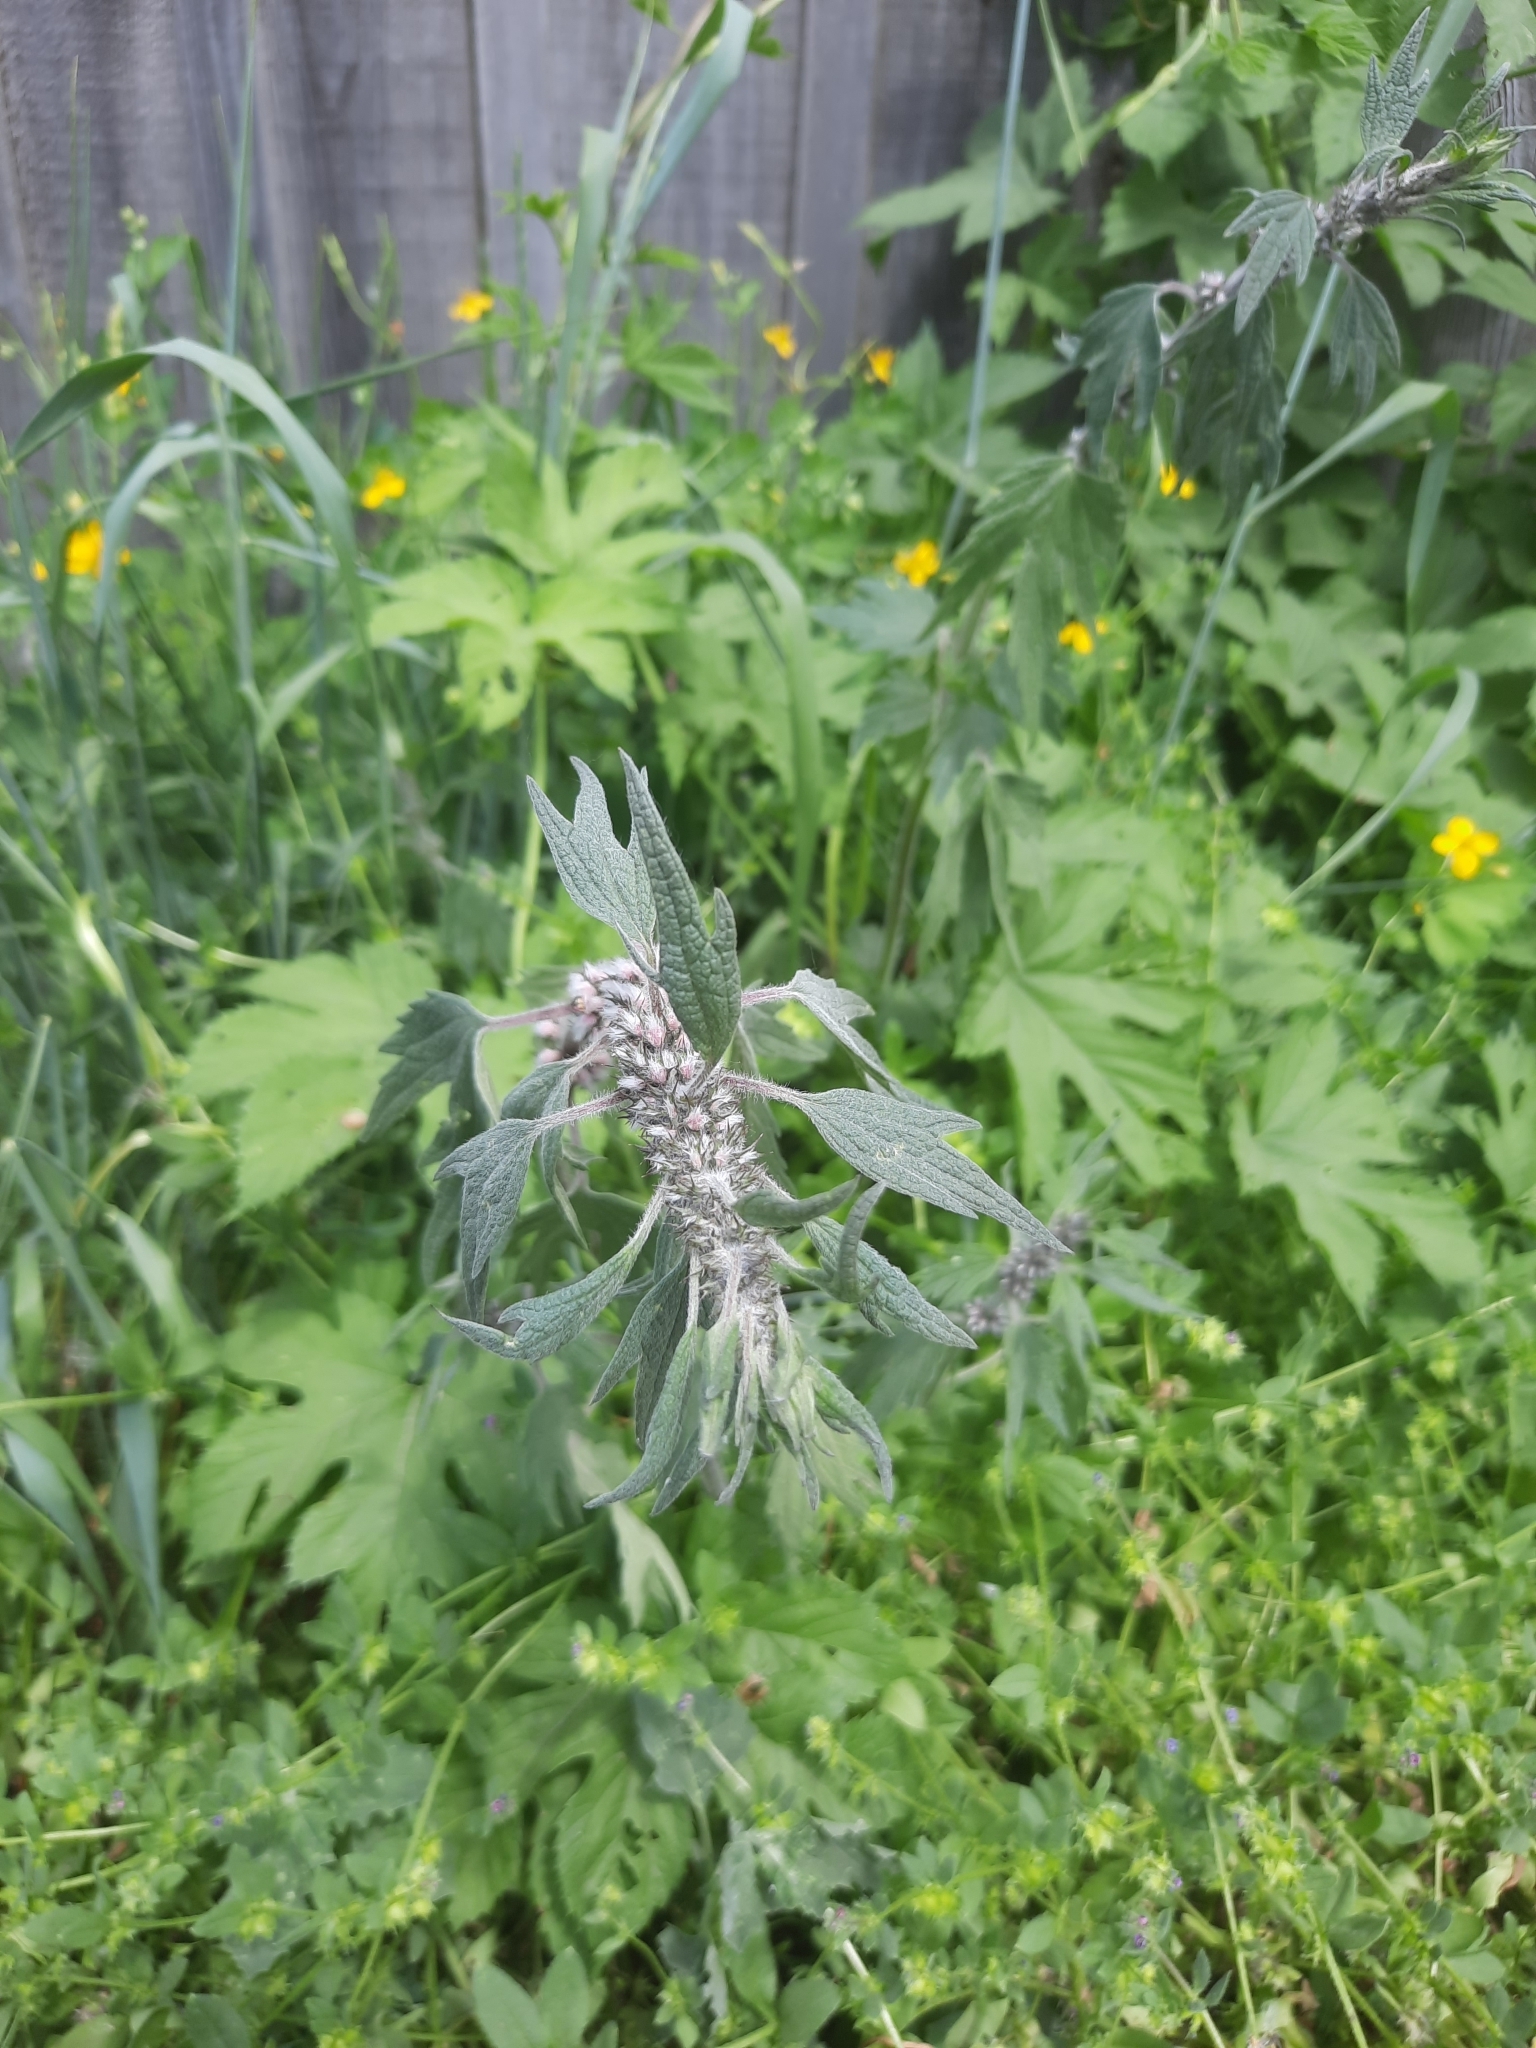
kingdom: Plantae
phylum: Tracheophyta
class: Magnoliopsida
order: Lamiales
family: Lamiaceae
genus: Leonurus
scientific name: Leonurus quinquelobatus
